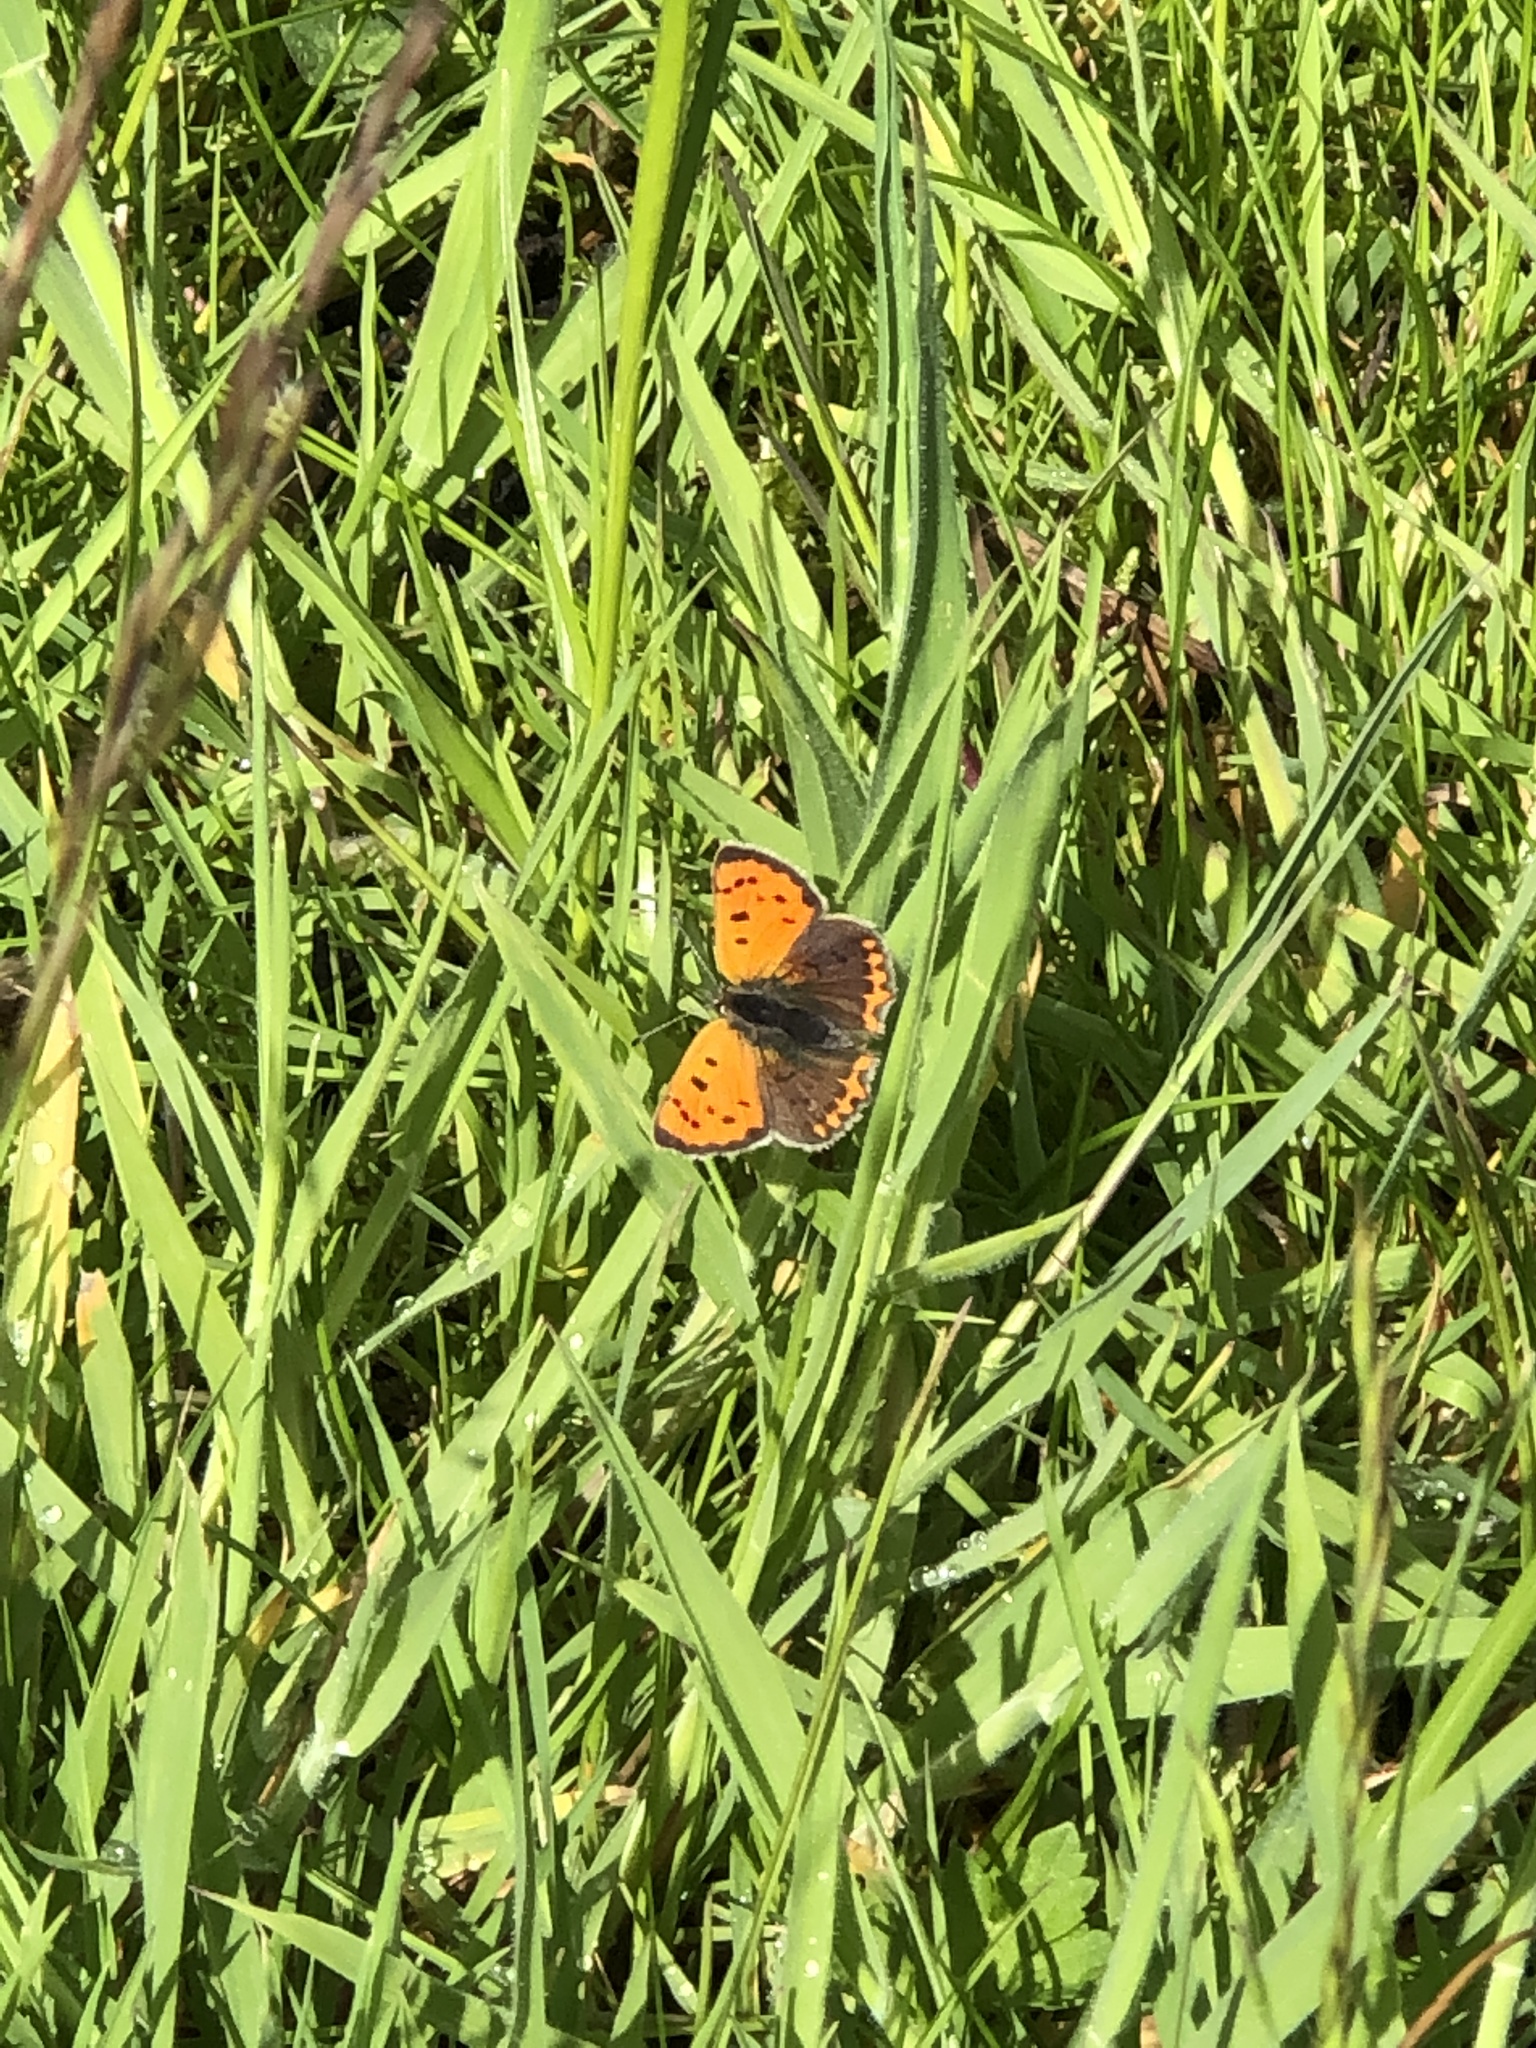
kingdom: Animalia
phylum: Arthropoda
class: Insecta
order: Lepidoptera
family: Lycaenidae
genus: Lycaena
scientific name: Lycaena phlaeas
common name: Small copper
